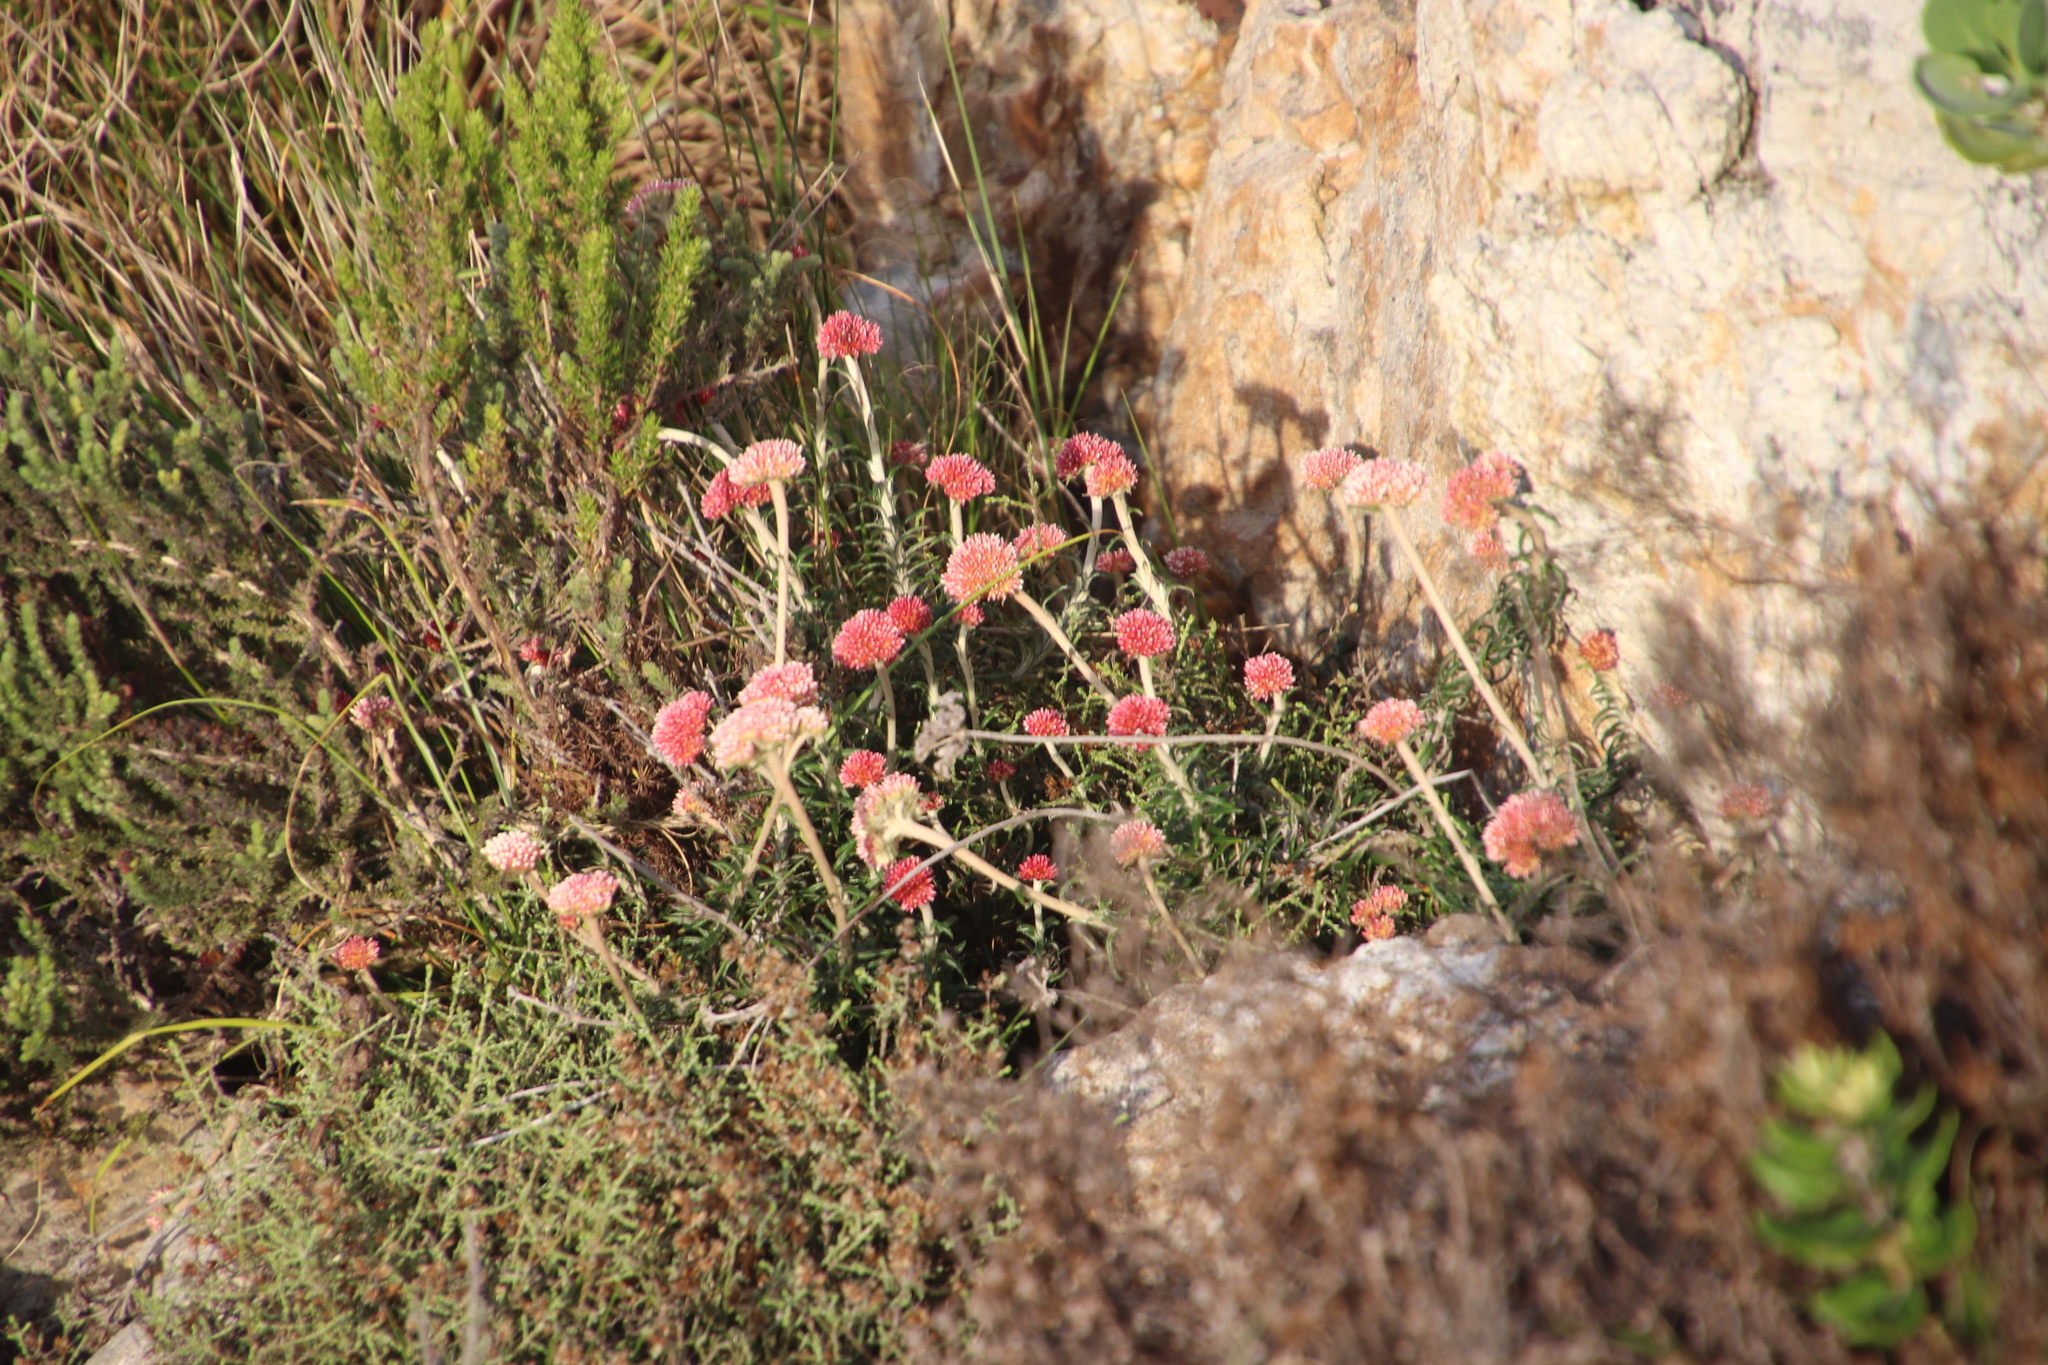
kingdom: Plantae
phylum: Tracheophyta
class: Magnoliopsida
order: Asterales
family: Asteraceae
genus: Anaxeton
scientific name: Anaxeton arborescens
